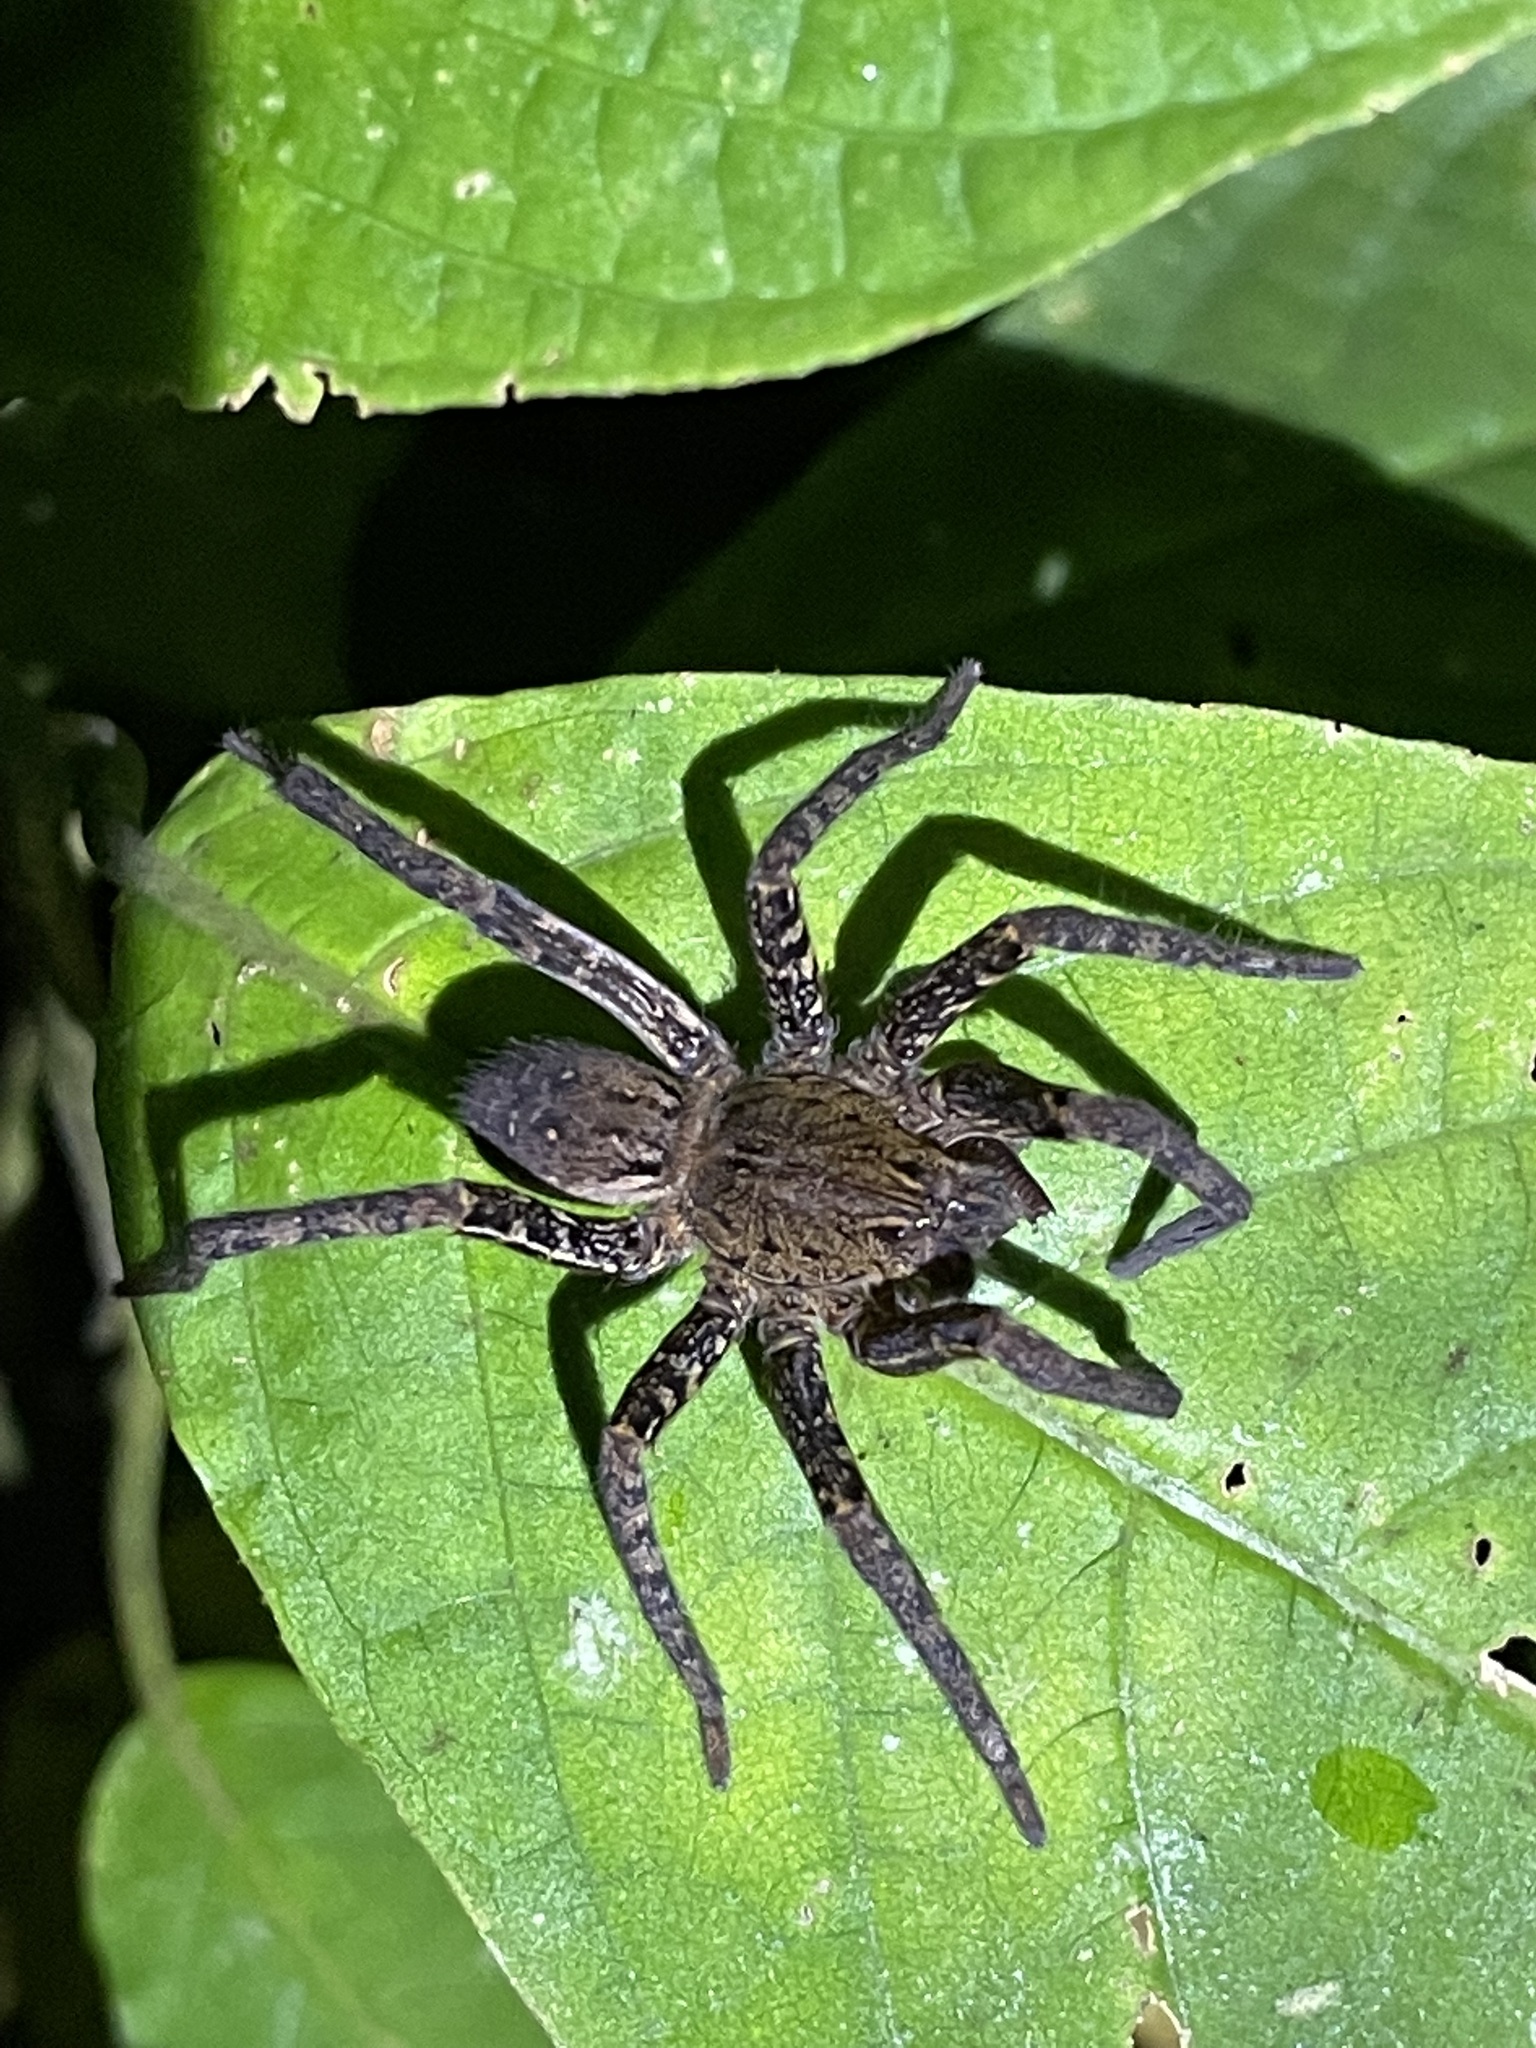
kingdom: Animalia
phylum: Arthropoda
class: Arachnida
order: Araneae
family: Ctenidae
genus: Ancylometes
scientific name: Ancylometes bogotensis
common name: Wandering spiders
